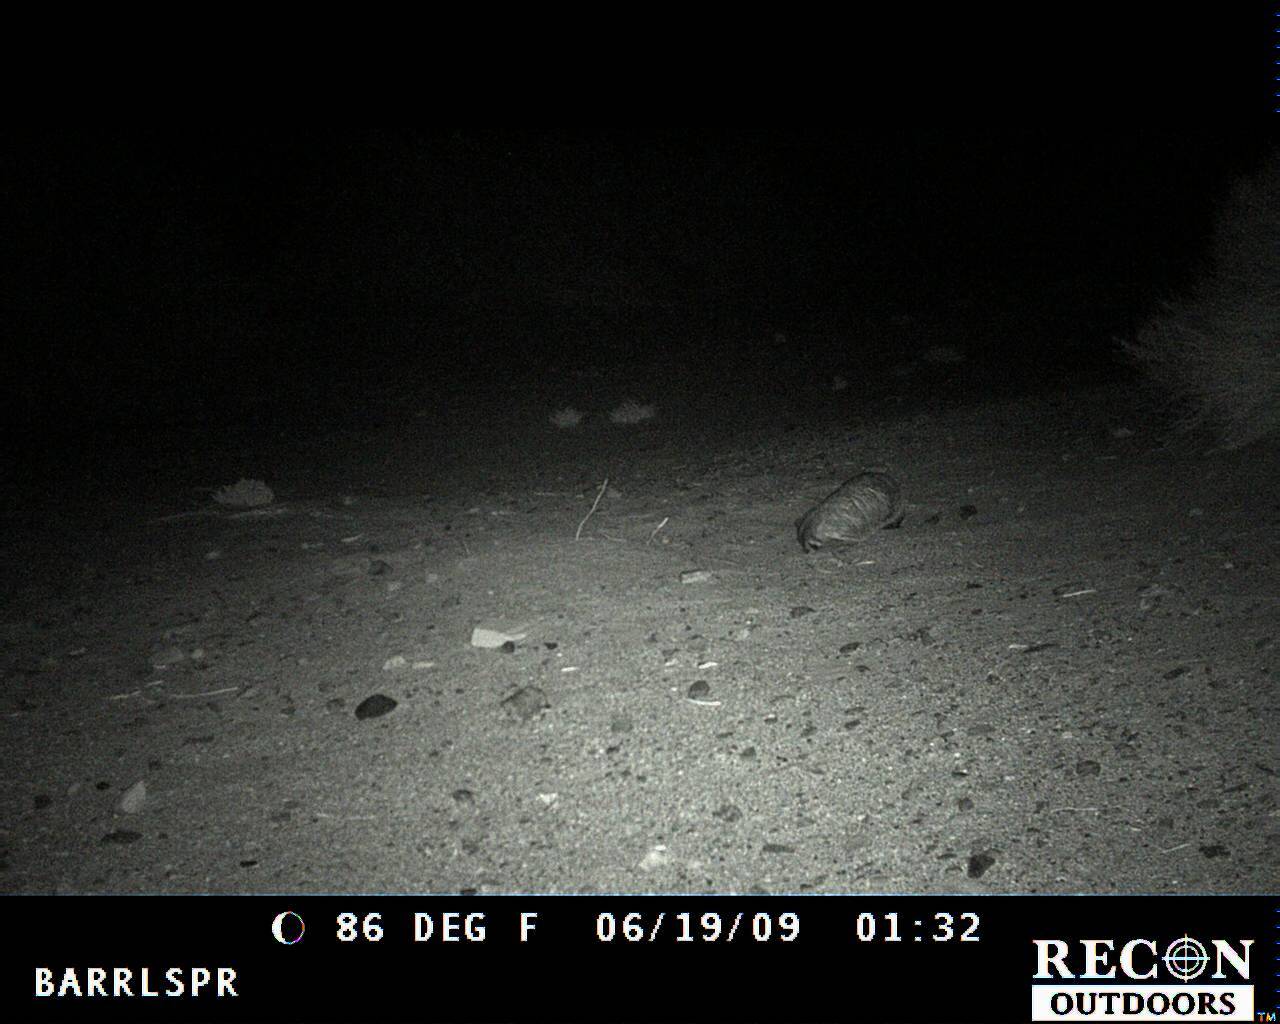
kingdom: Animalia
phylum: Chordata
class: Mammalia
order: Carnivora
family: Mustelidae
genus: Taxidea
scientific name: Taxidea taxus
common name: American badger
